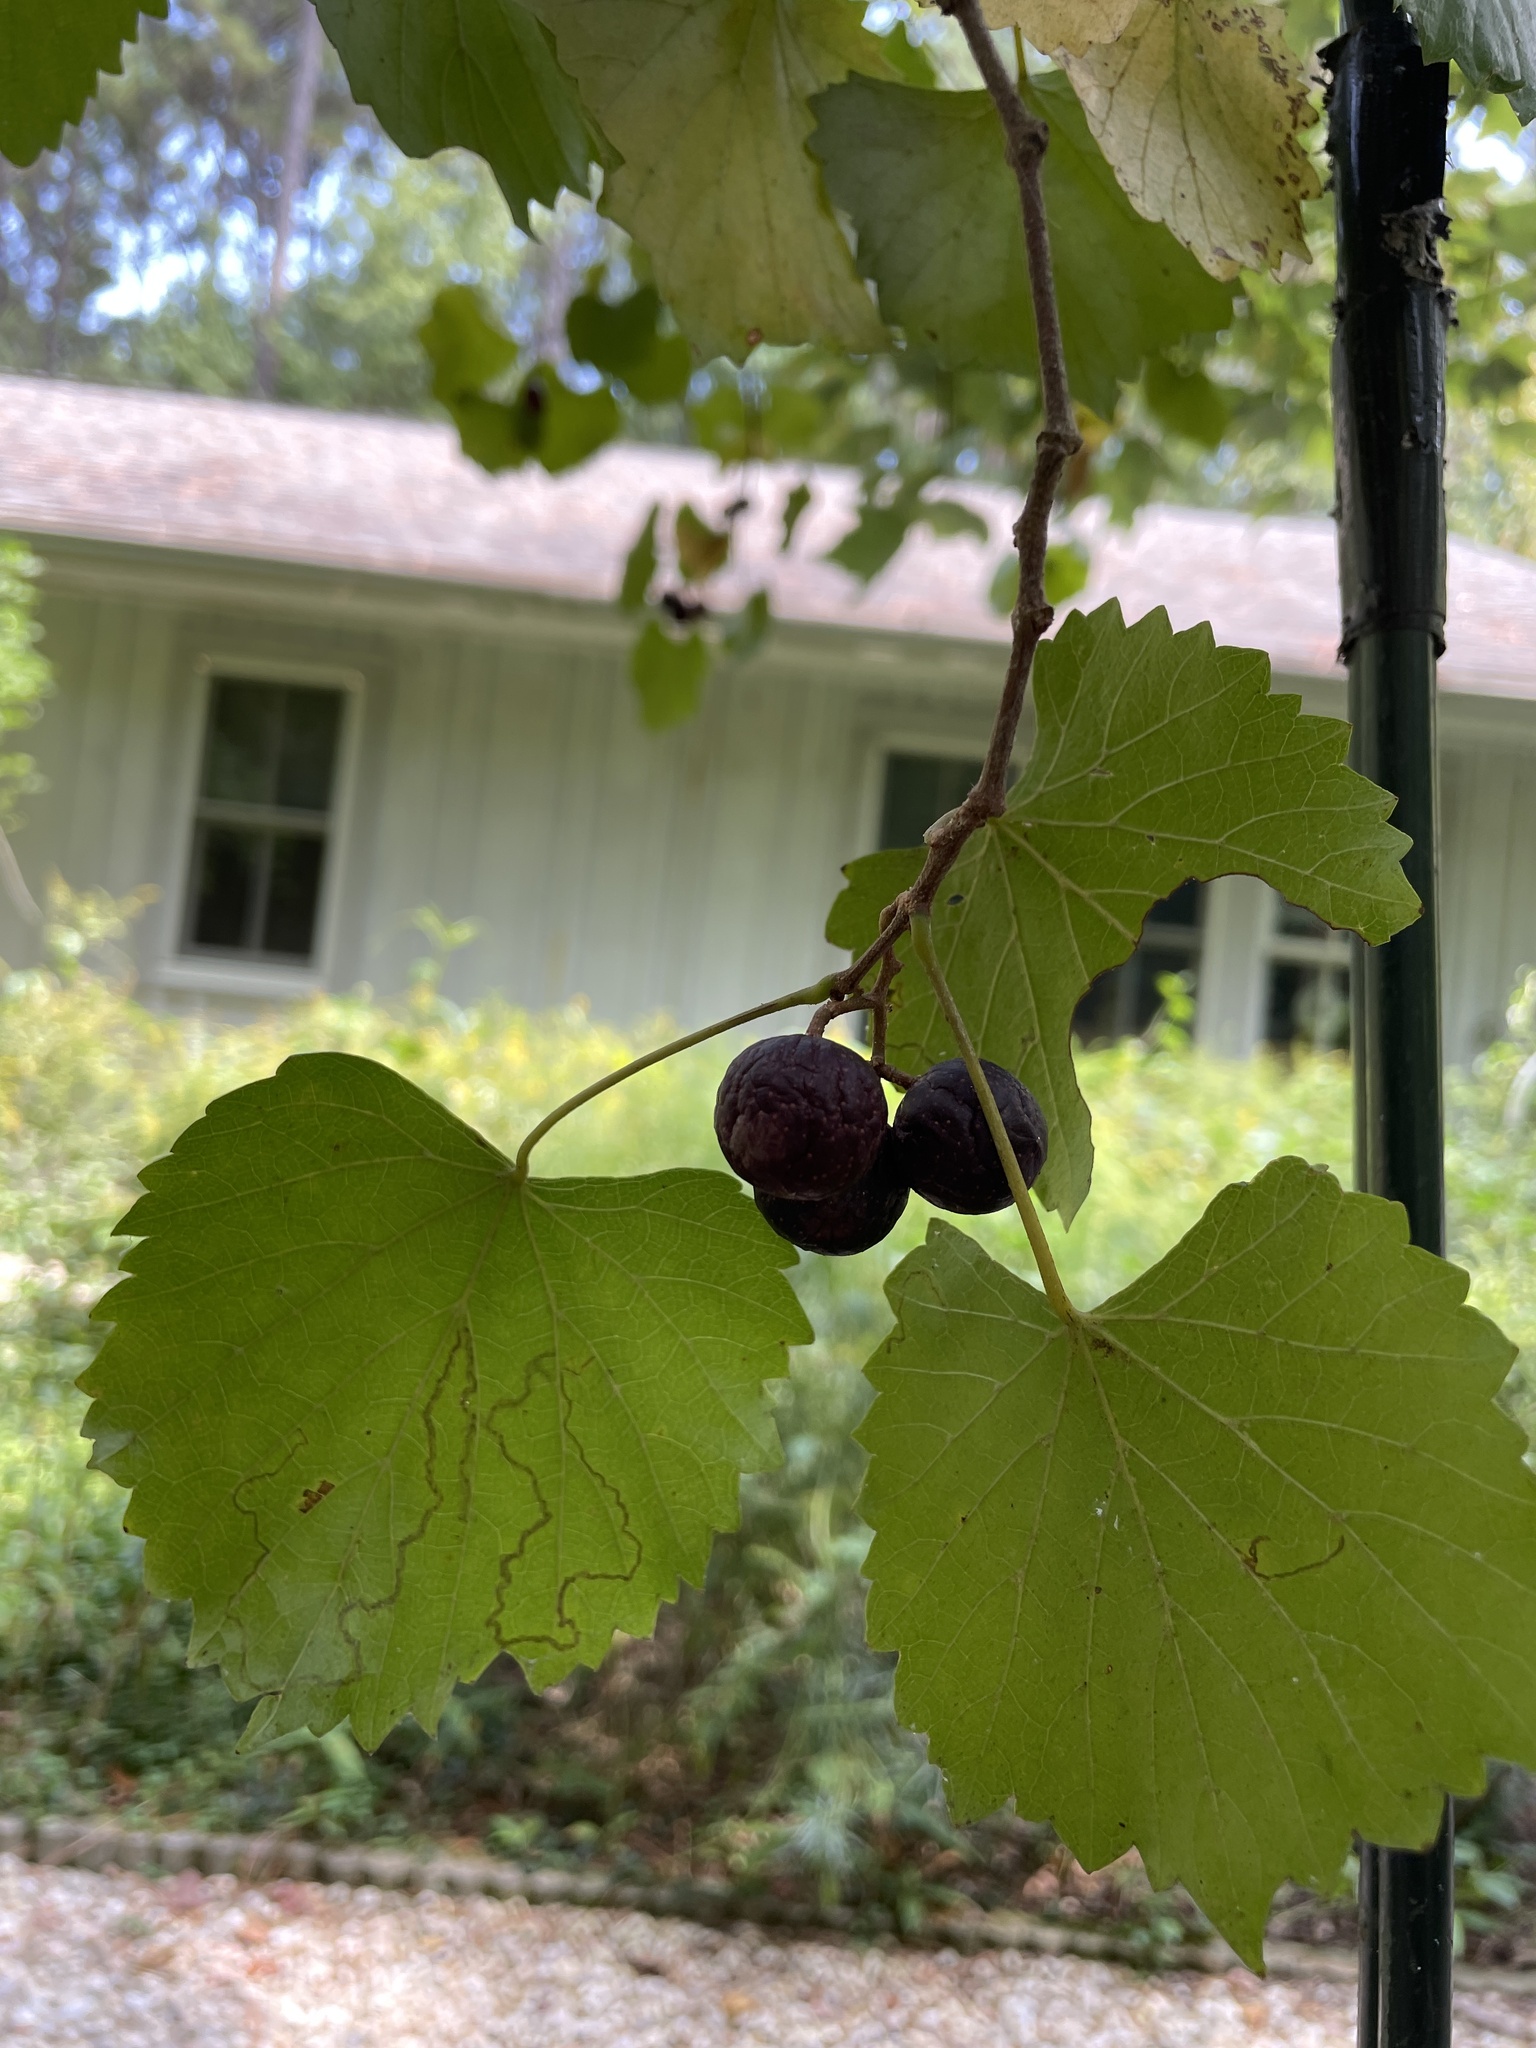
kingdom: Plantae
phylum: Tracheophyta
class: Magnoliopsida
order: Vitales
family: Vitaceae
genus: Vitis
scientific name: Vitis rotundifolia
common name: Muscadine grape
